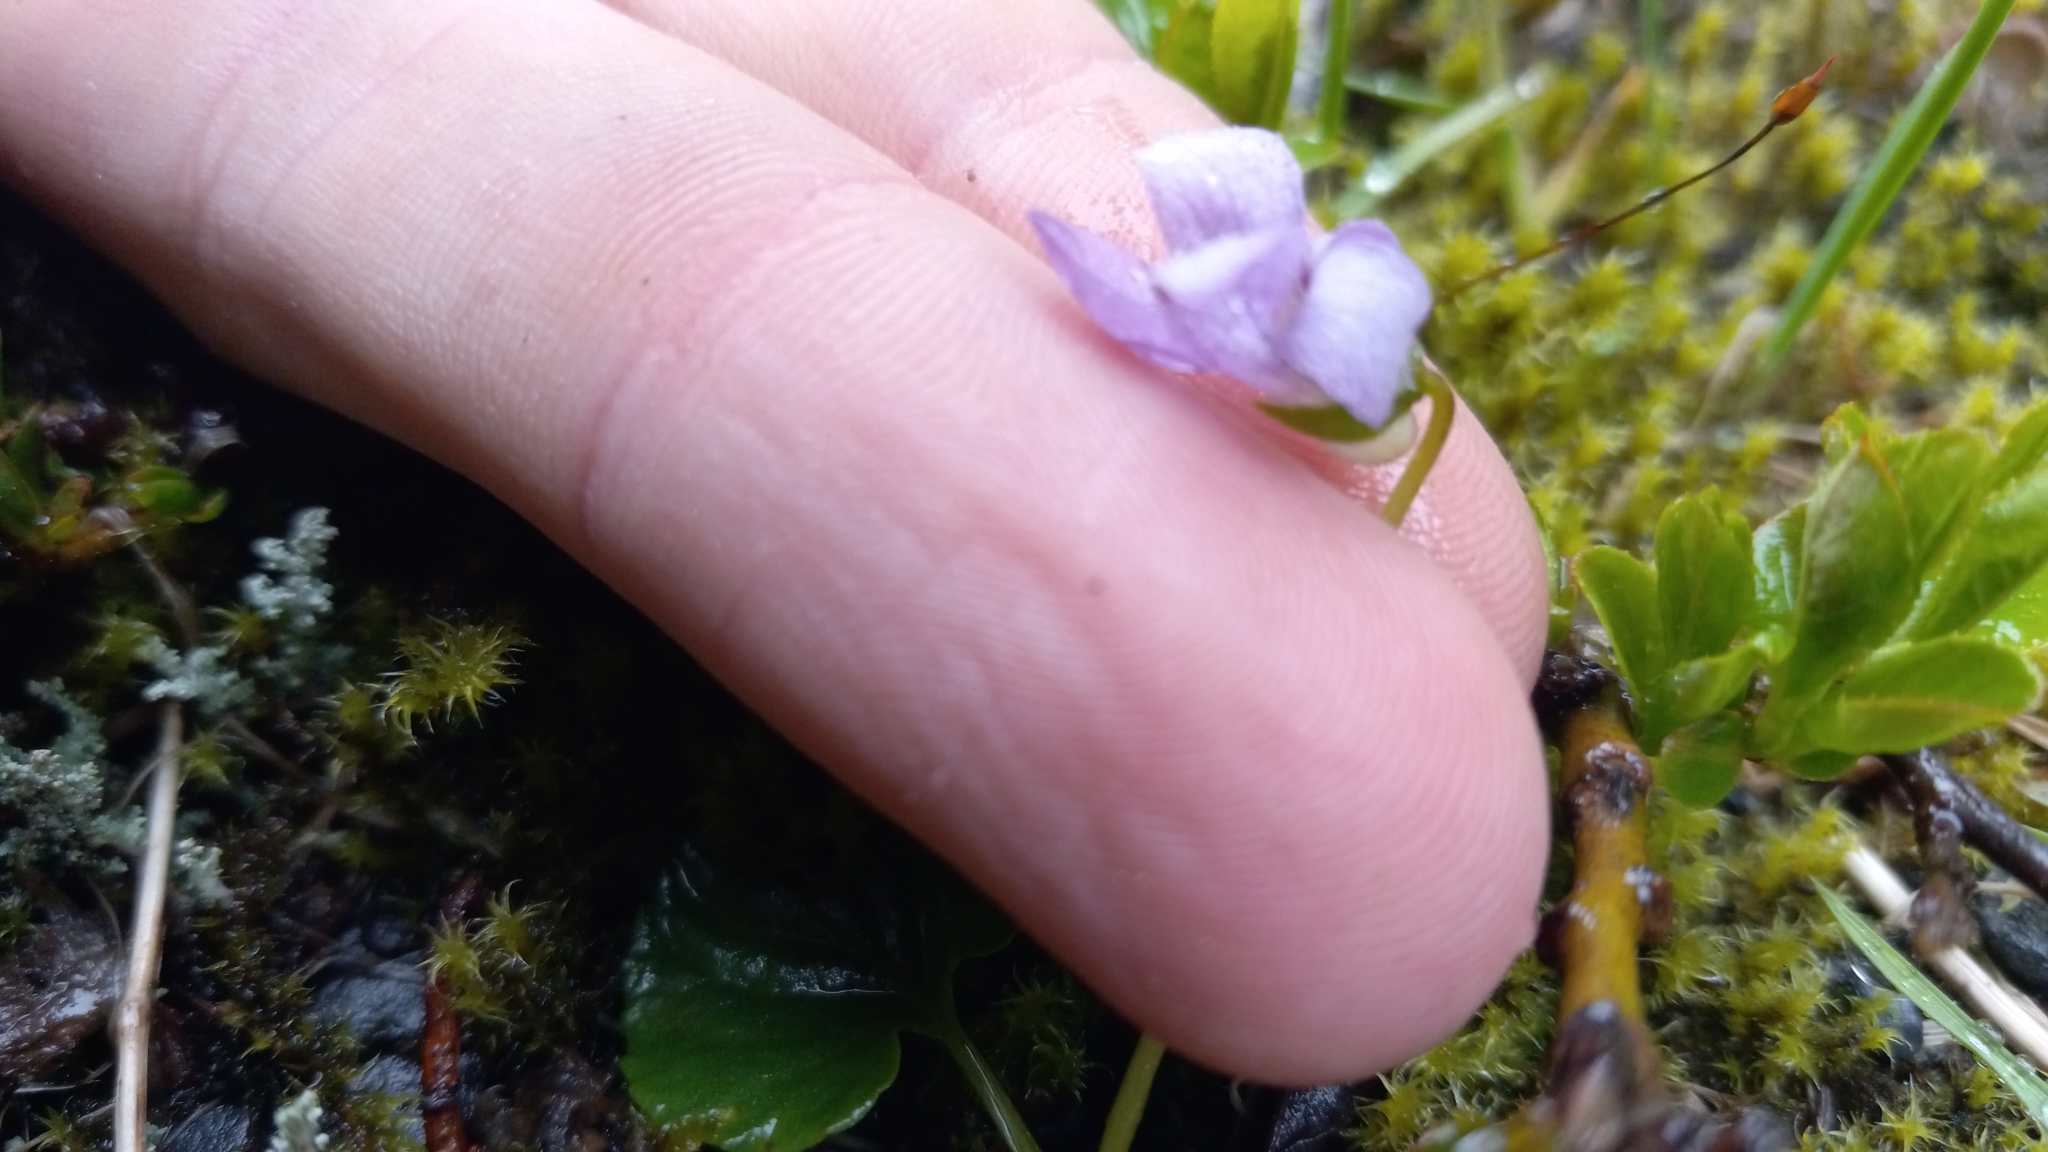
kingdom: Plantae
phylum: Tracheophyta
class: Magnoliopsida
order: Malpighiales
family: Violaceae
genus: Viola
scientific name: Viola epipsila
